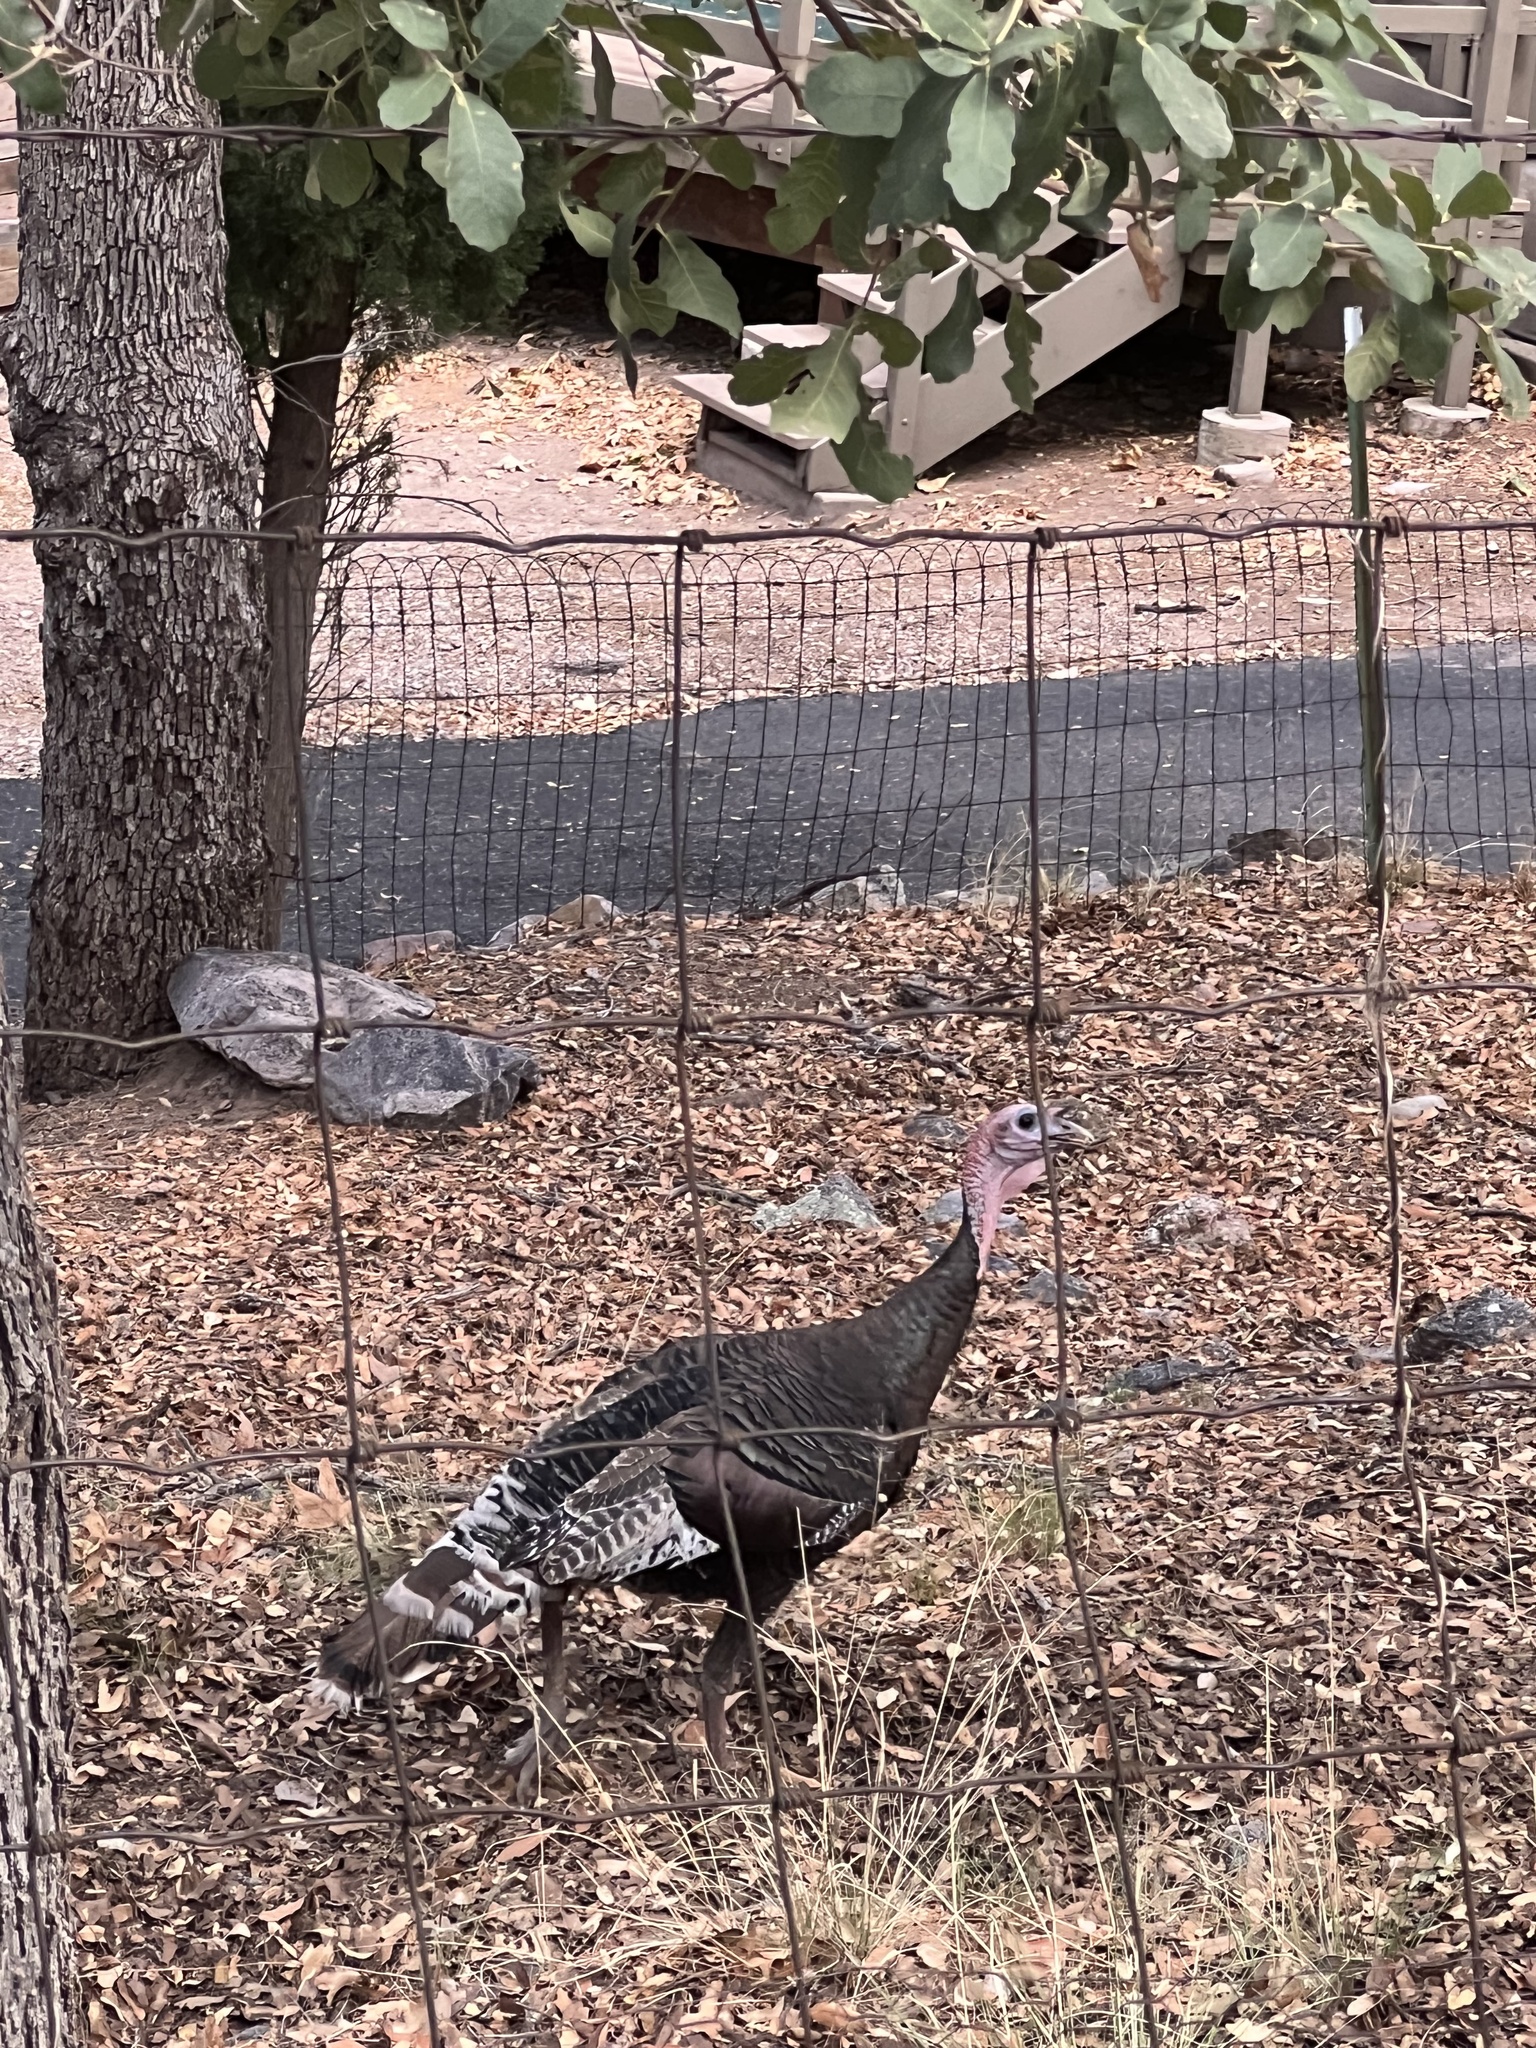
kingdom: Animalia
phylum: Chordata
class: Aves
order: Galliformes
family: Phasianidae
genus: Meleagris
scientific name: Meleagris gallopavo
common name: Wild turkey
